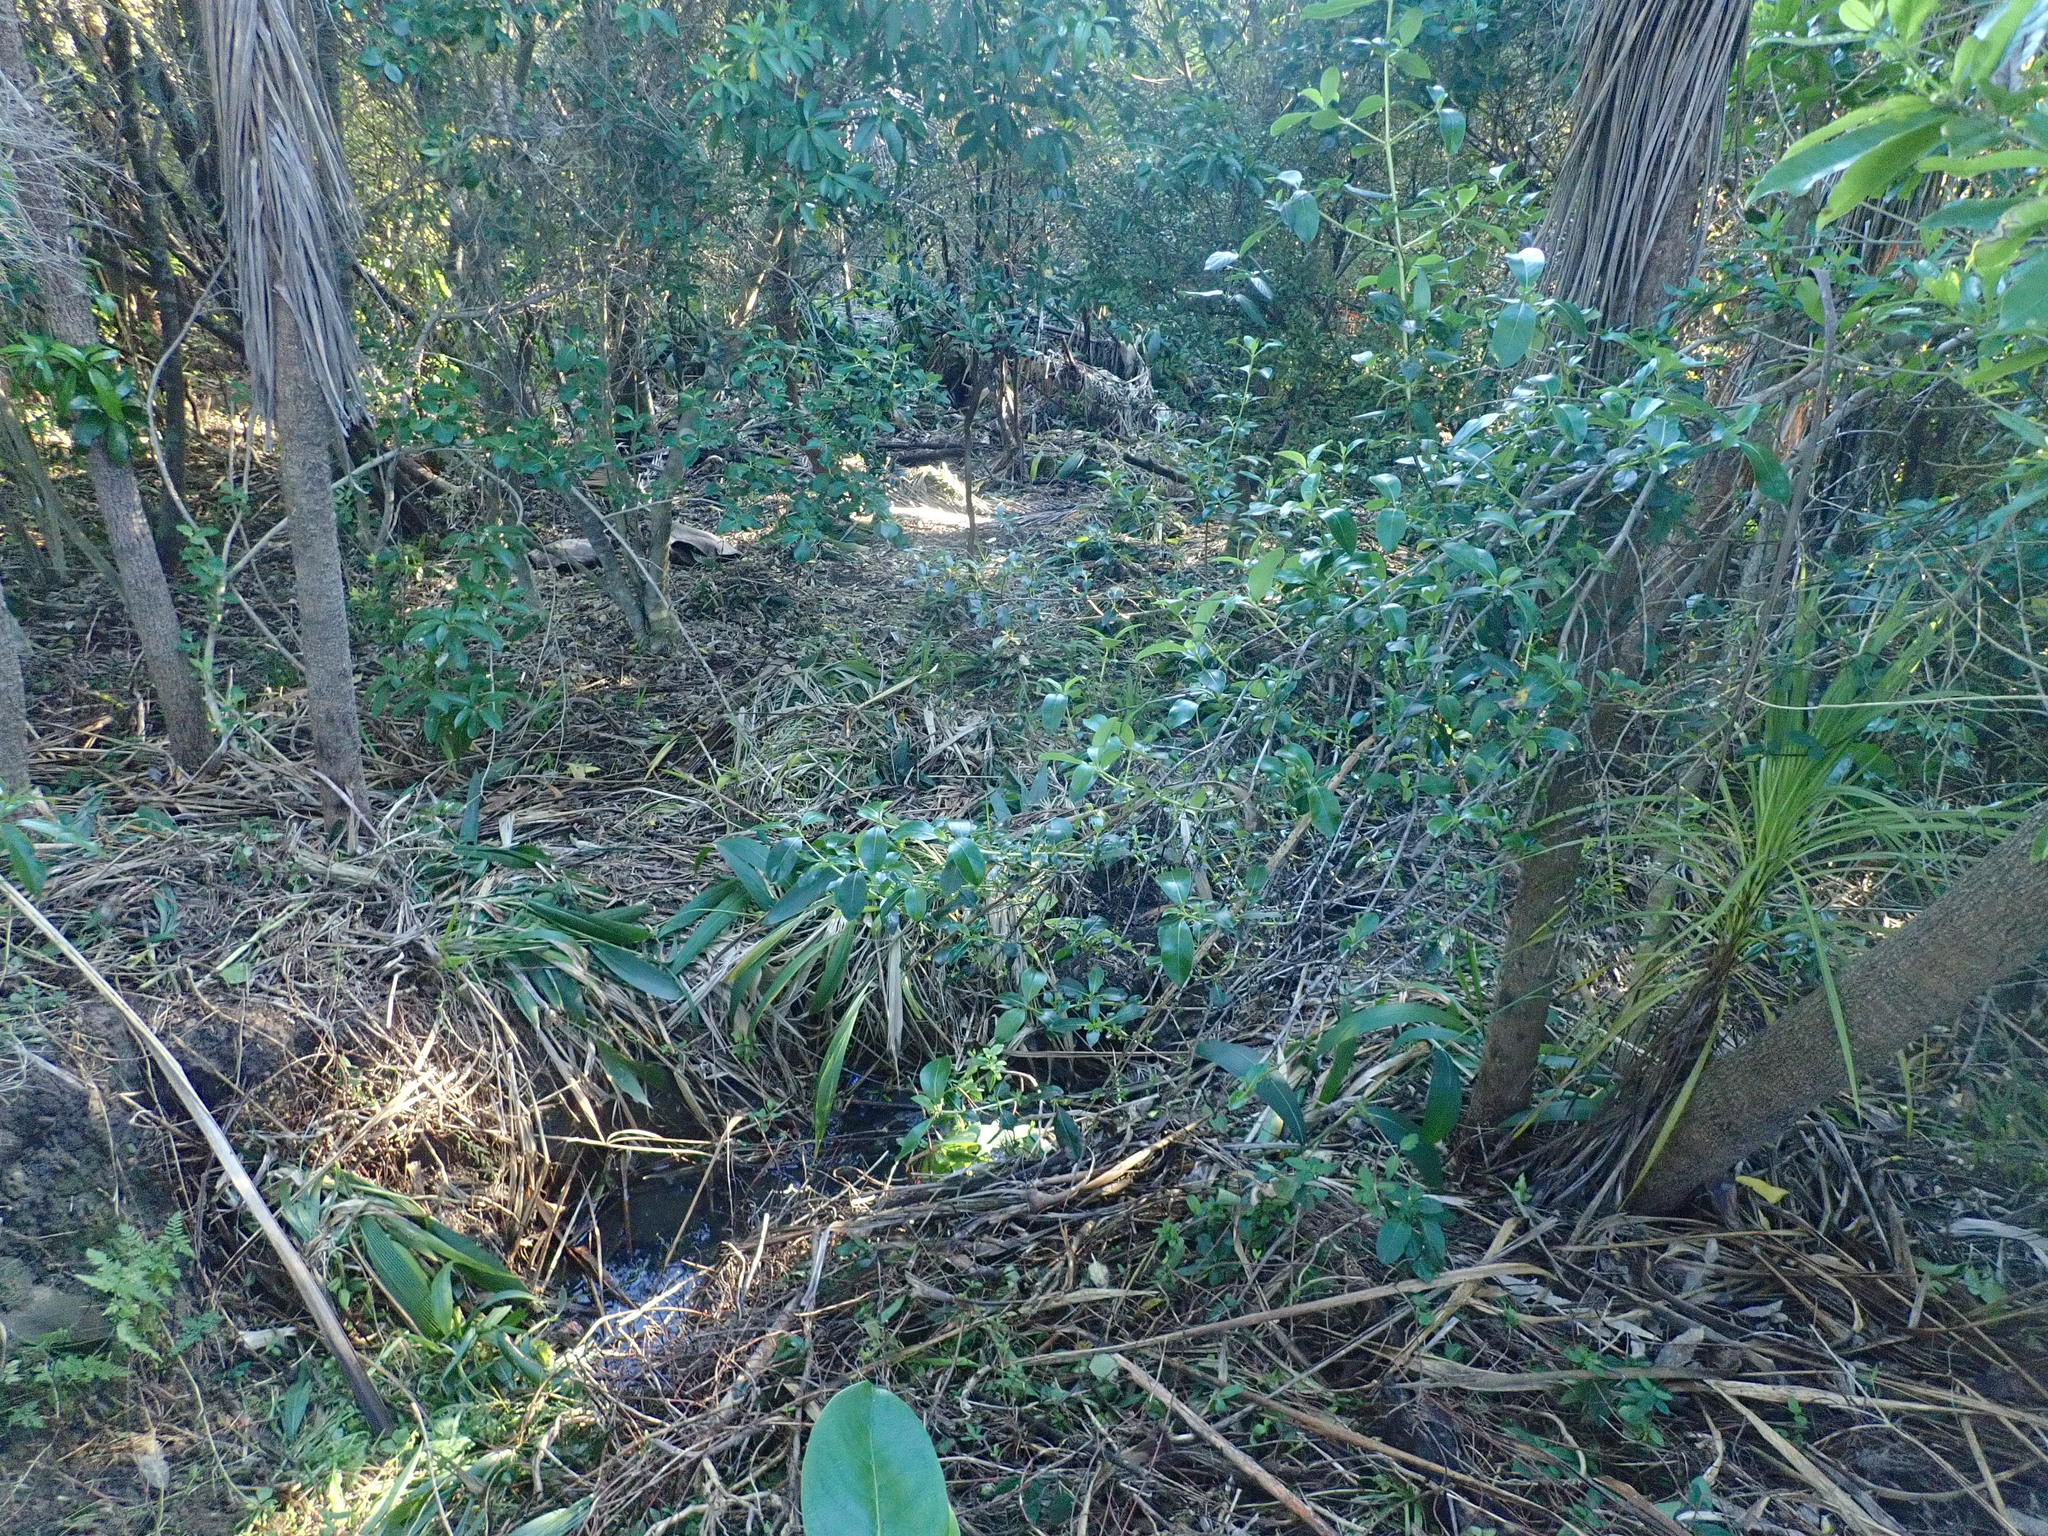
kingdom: Plantae
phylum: Tracheophyta
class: Magnoliopsida
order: Gentianales
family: Rubiaceae
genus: Coprosma
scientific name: Coprosma robusta
